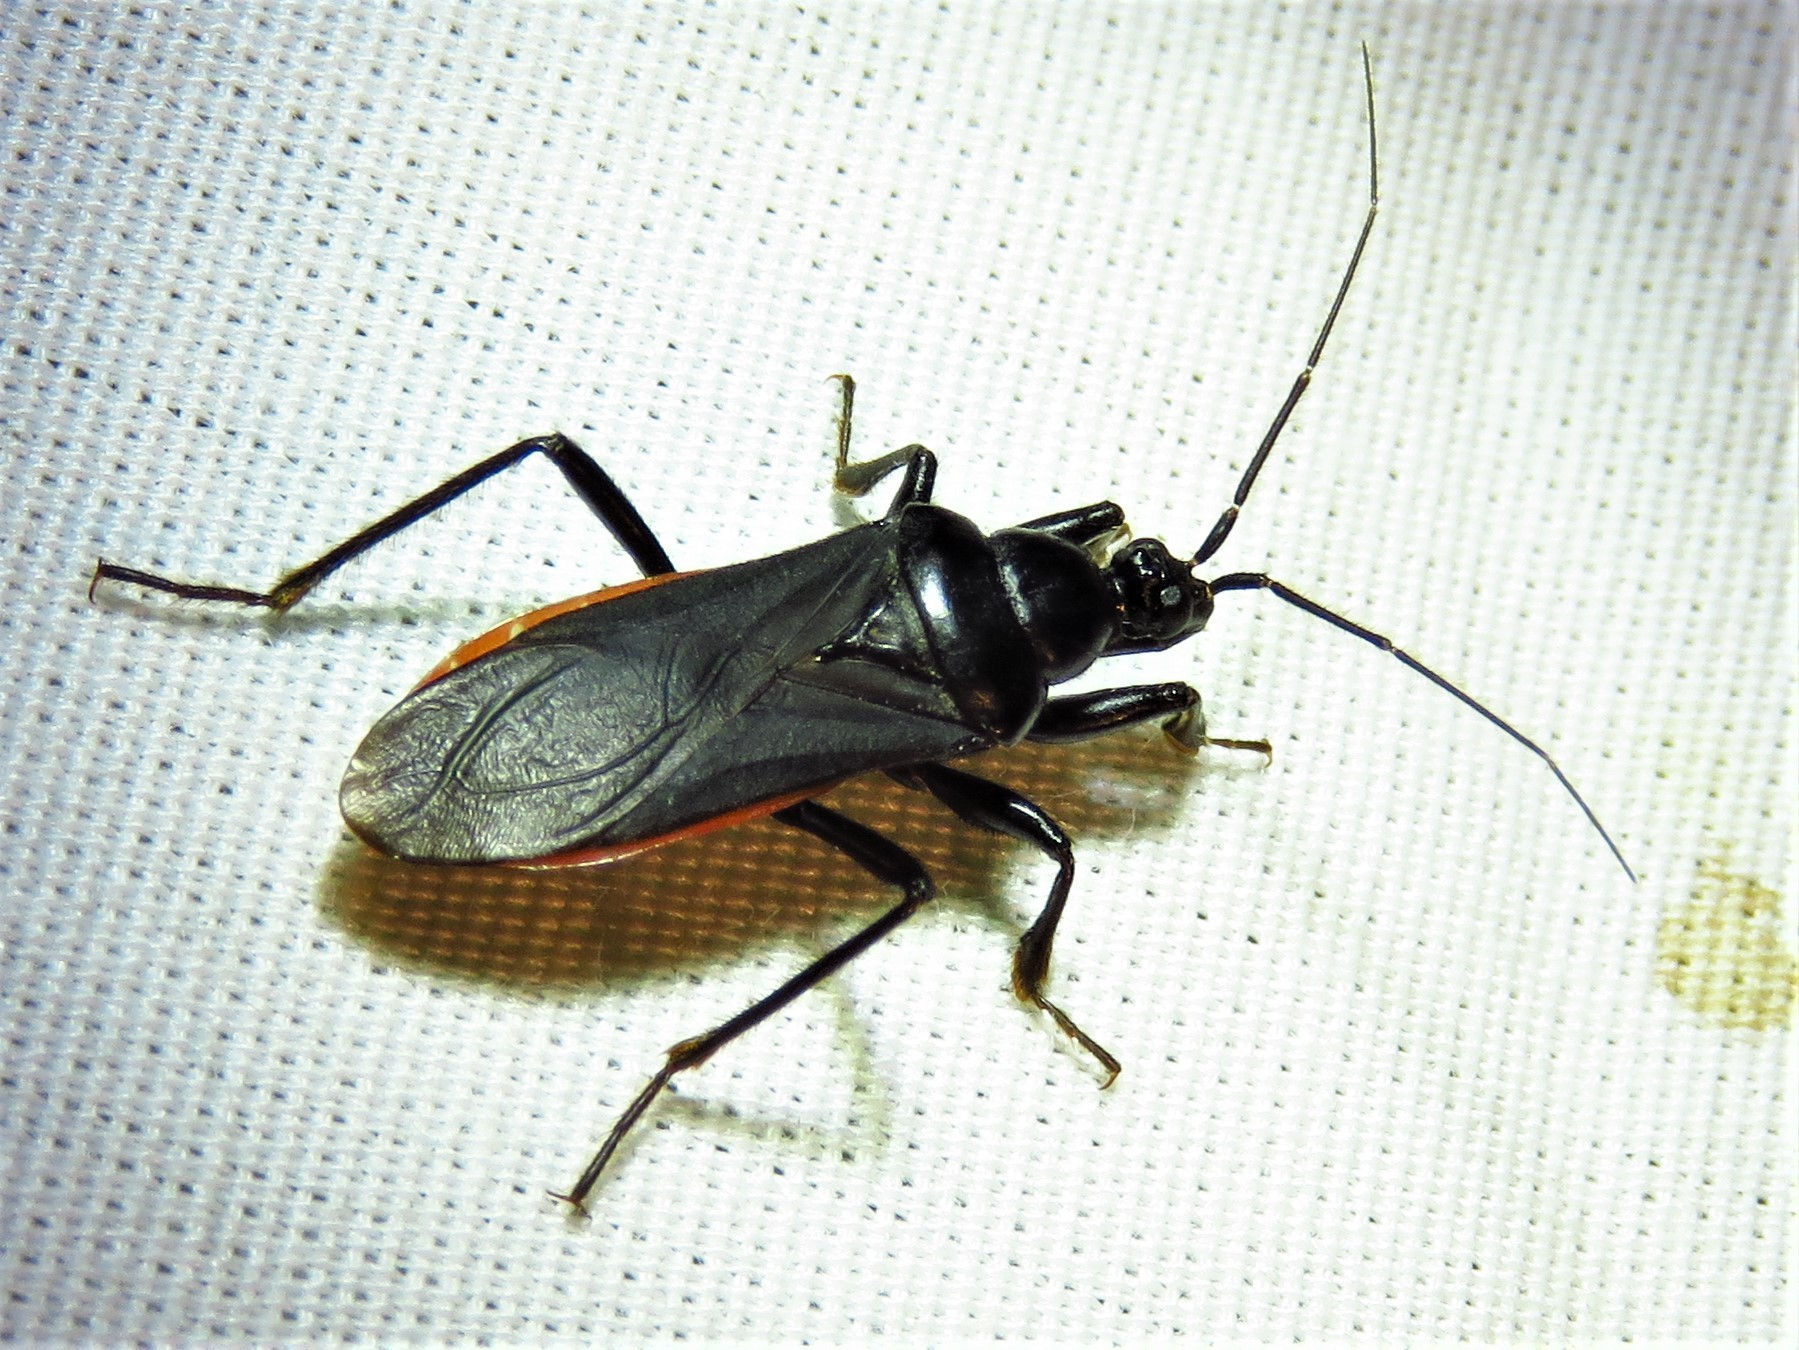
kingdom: Animalia
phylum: Arthropoda
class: Insecta
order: Hemiptera
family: Reduviidae
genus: Melanolestes
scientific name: Melanolestes picipes
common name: Assassin bug
